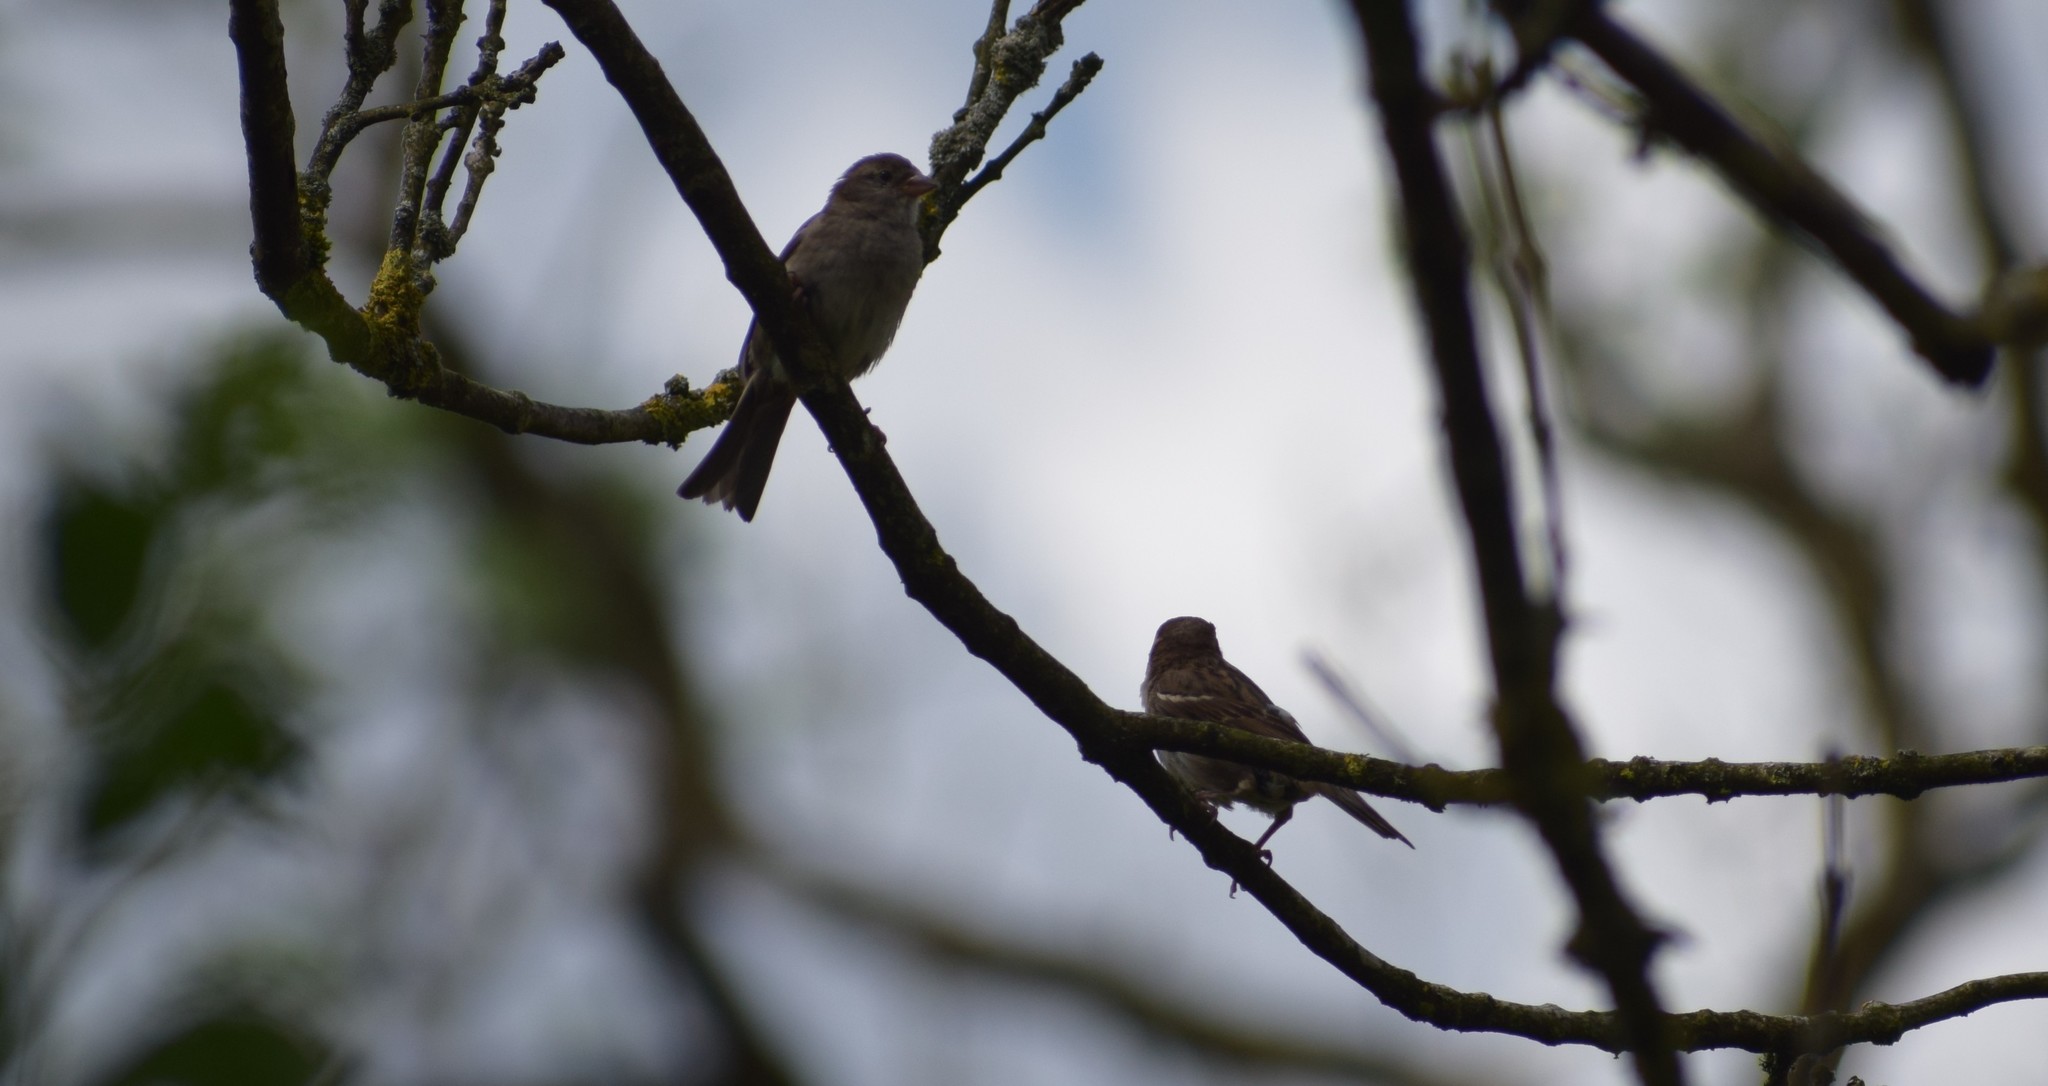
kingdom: Animalia
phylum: Chordata
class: Aves
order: Passeriformes
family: Passeridae
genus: Passer
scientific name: Passer domesticus
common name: House sparrow
